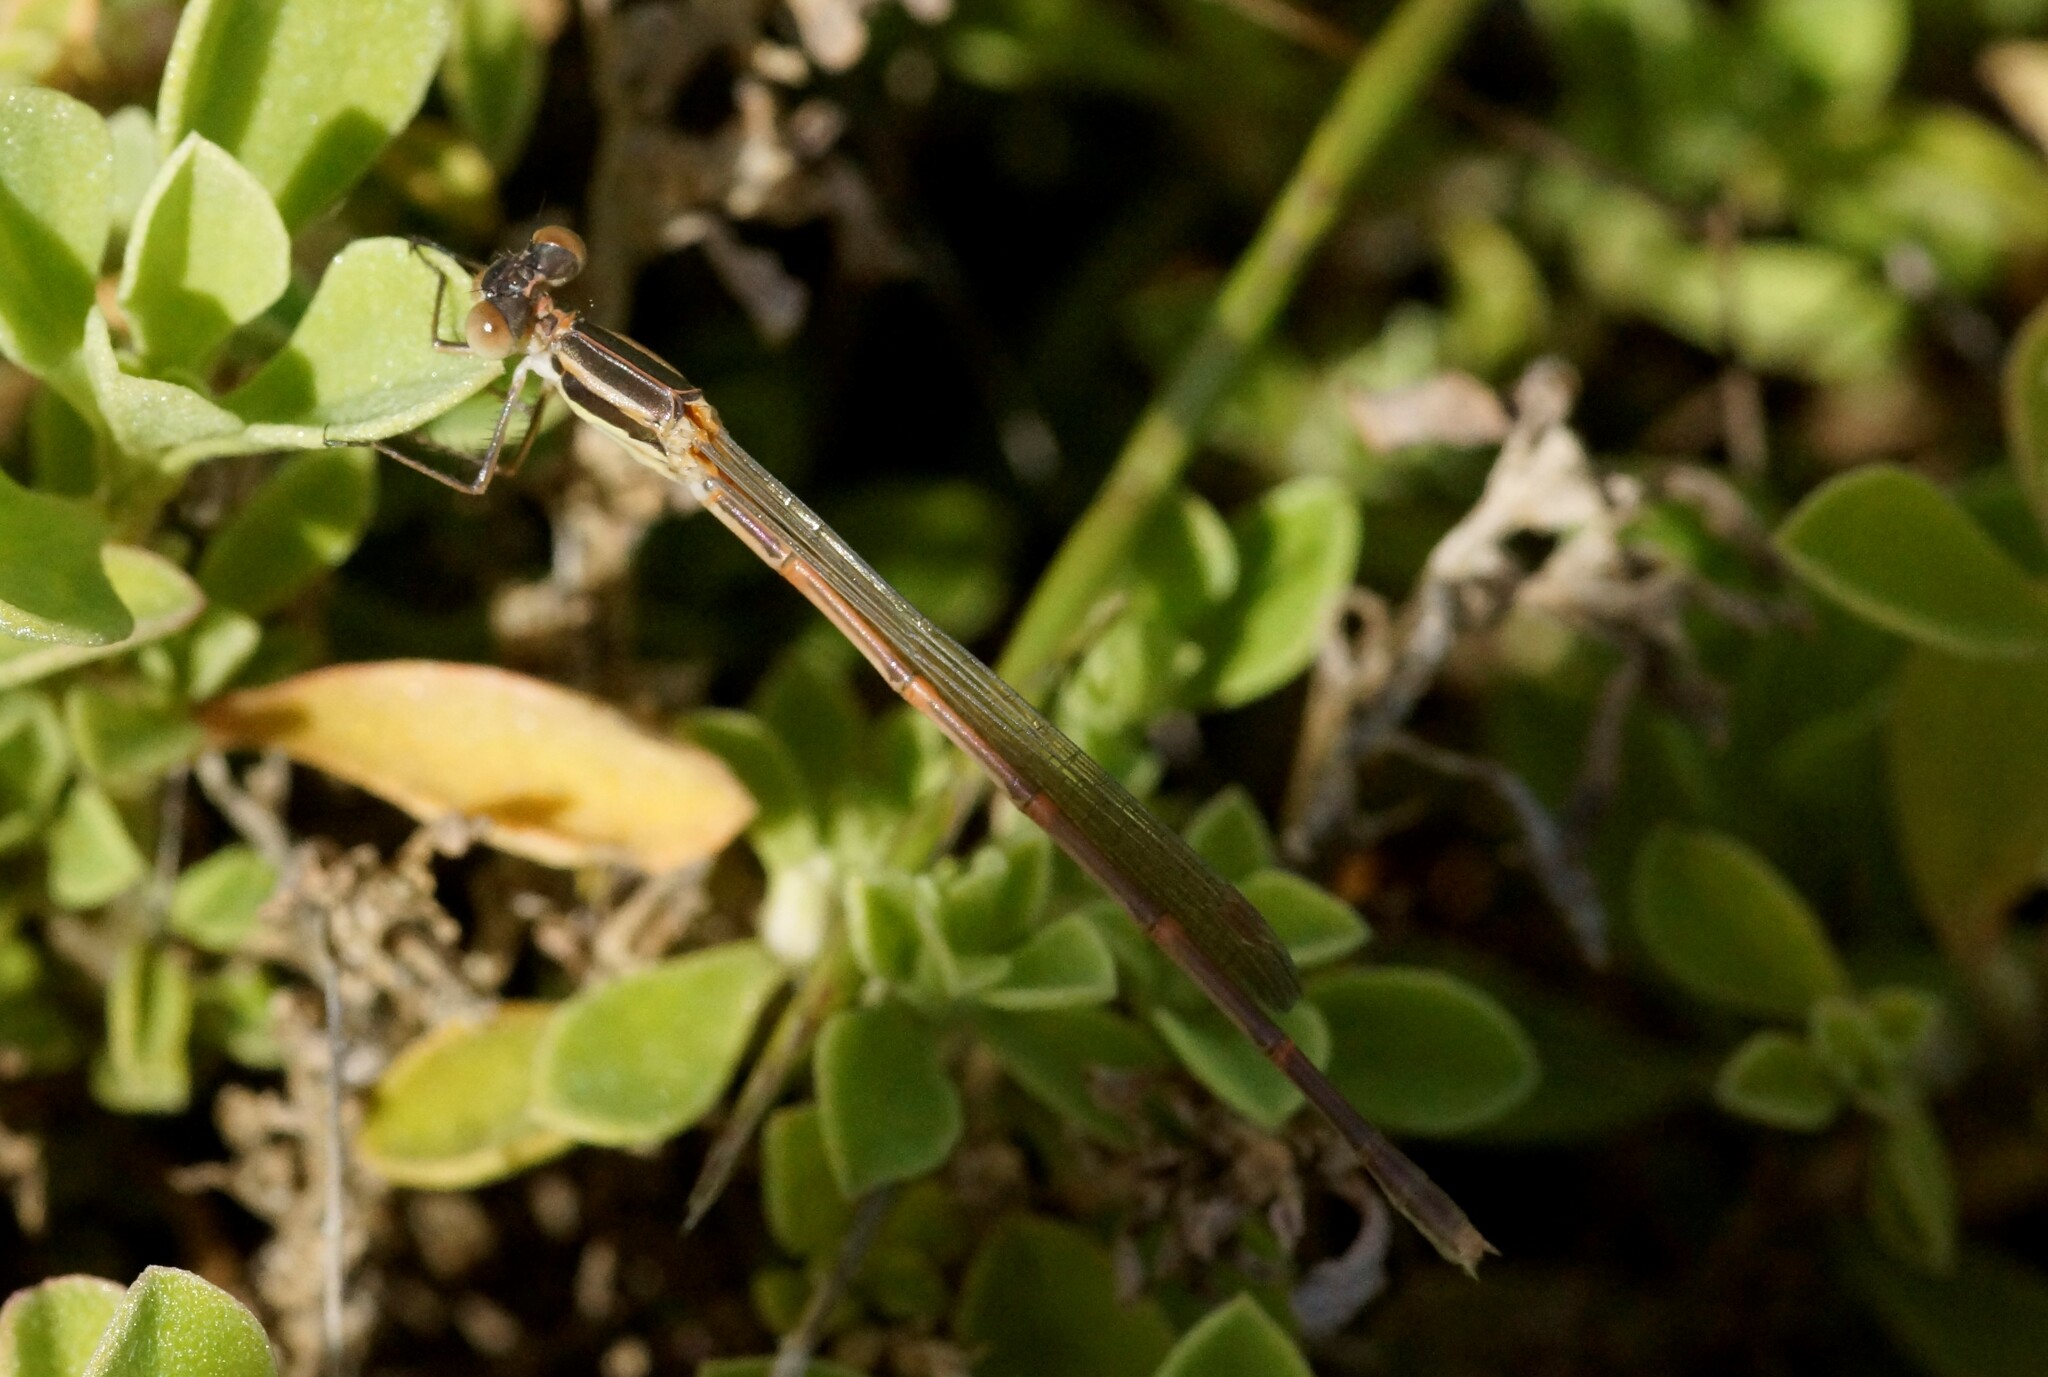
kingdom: Animalia
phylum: Arthropoda
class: Insecta
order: Odonata
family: Lestidae
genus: Austrolestes
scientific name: Austrolestes analis
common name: Slender ringtail
